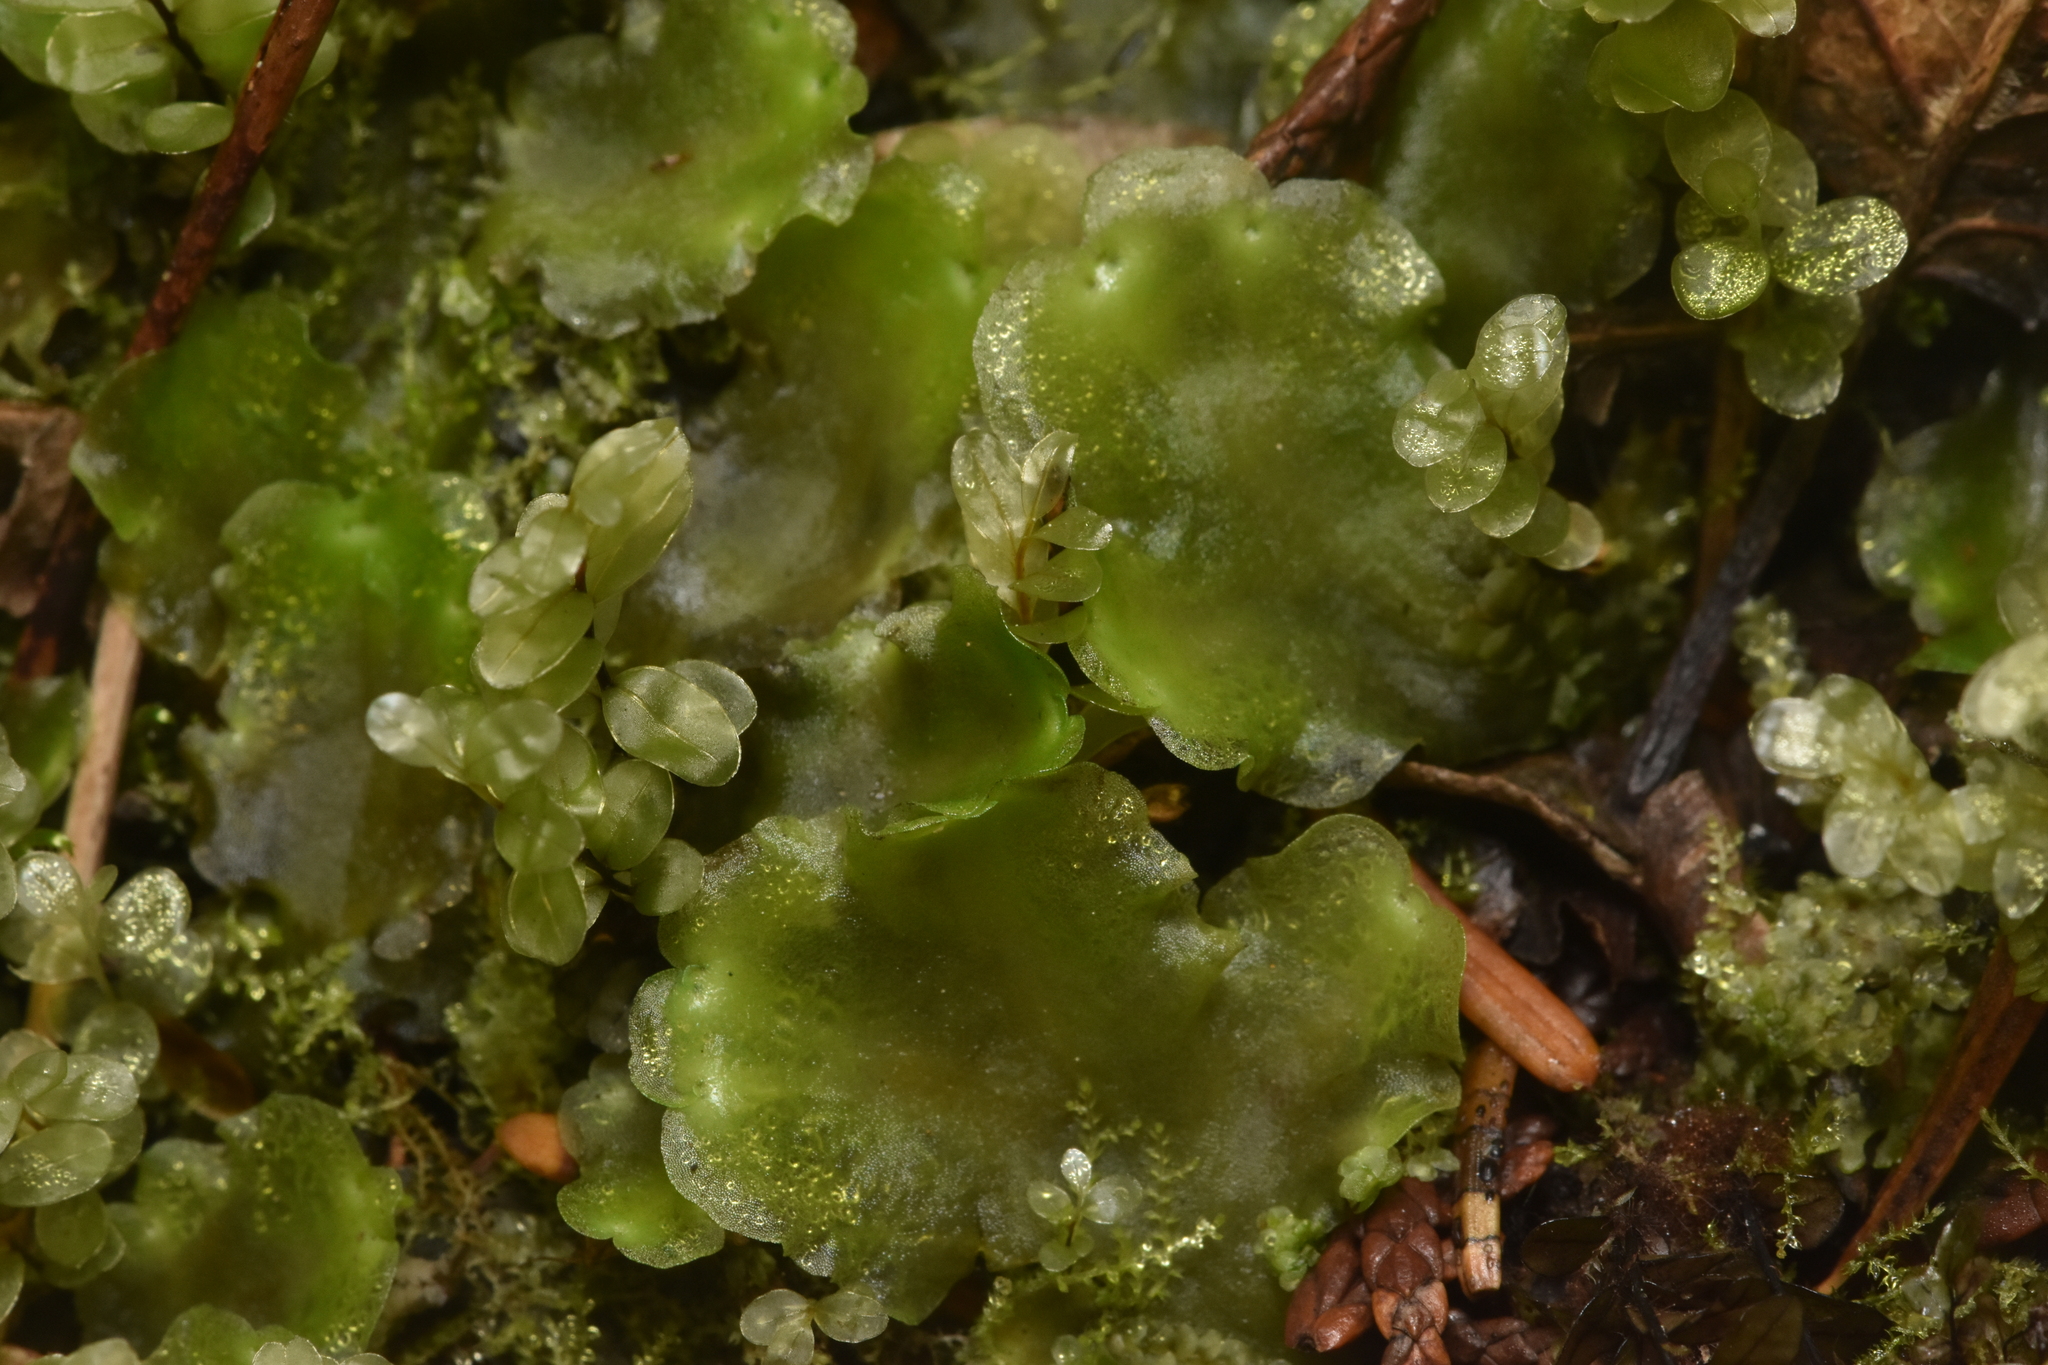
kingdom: Plantae
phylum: Marchantiophyta
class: Jungermanniopsida
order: Pelliales
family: Pelliaceae
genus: Pellia
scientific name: Pellia neesiana
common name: Nees  pellia
